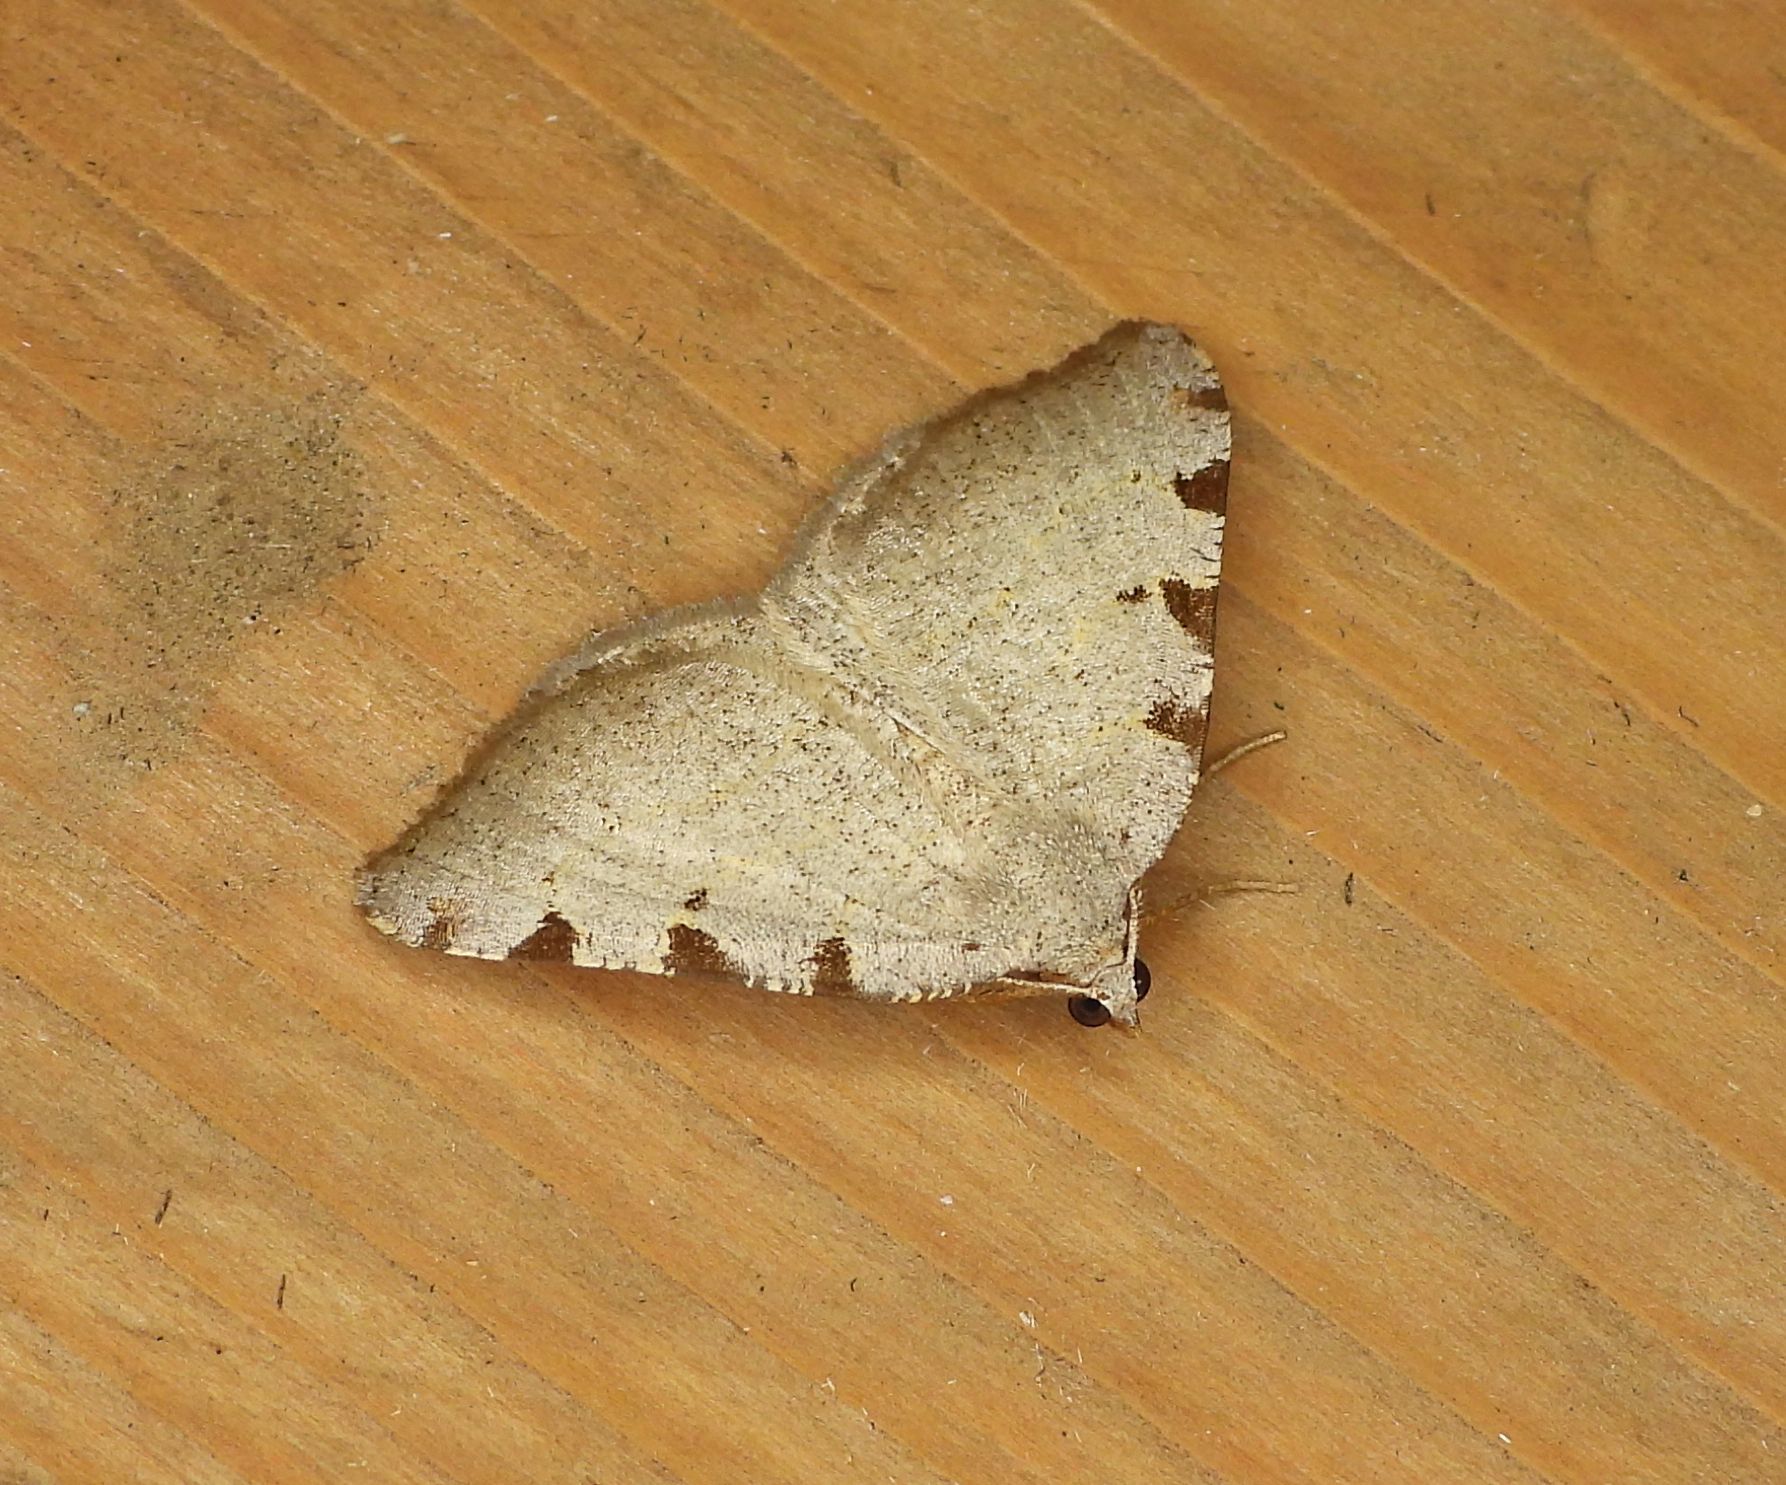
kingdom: Animalia
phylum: Arthropoda
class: Insecta
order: Lepidoptera
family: Geometridae
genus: Macaria
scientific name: Macaria coortaria
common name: Four-spotted granite
